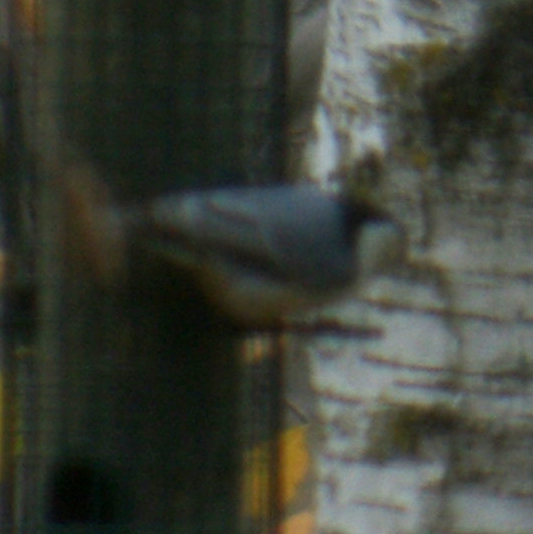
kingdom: Animalia
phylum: Chordata
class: Aves
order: Passeriformes
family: Sittidae
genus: Sitta
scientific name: Sitta carolinensis
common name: White-breasted nuthatch
